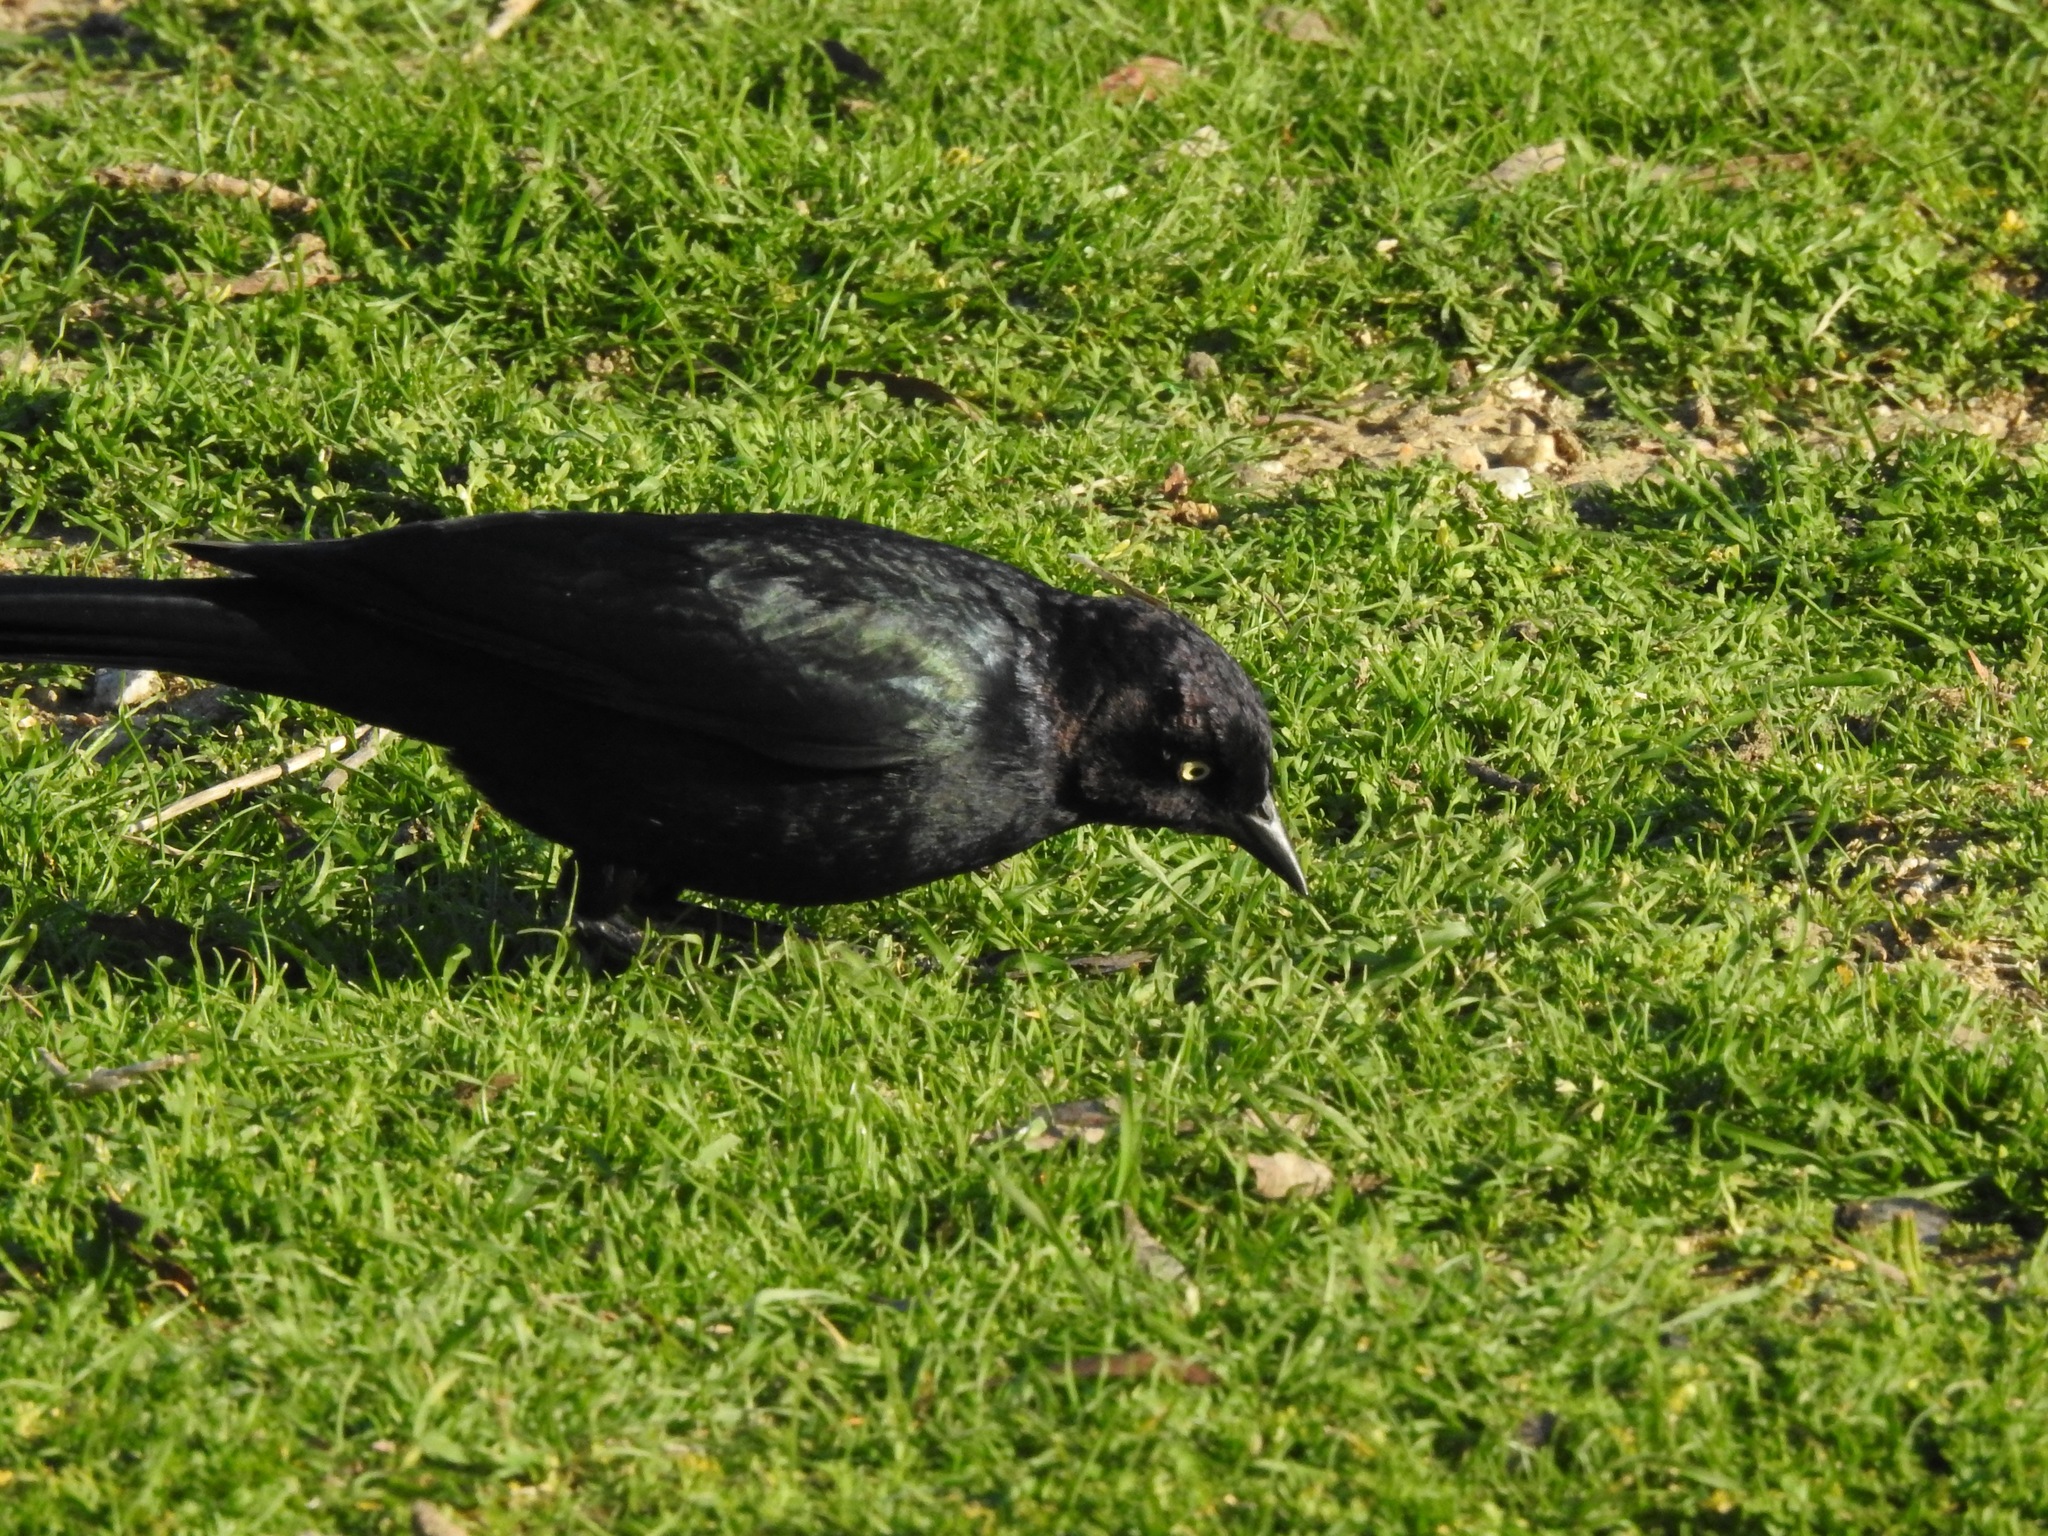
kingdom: Animalia
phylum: Chordata
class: Aves
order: Passeriformes
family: Icteridae
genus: Euphagus
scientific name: Euphagus cyanocephalus
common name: Brewer's blackbird
